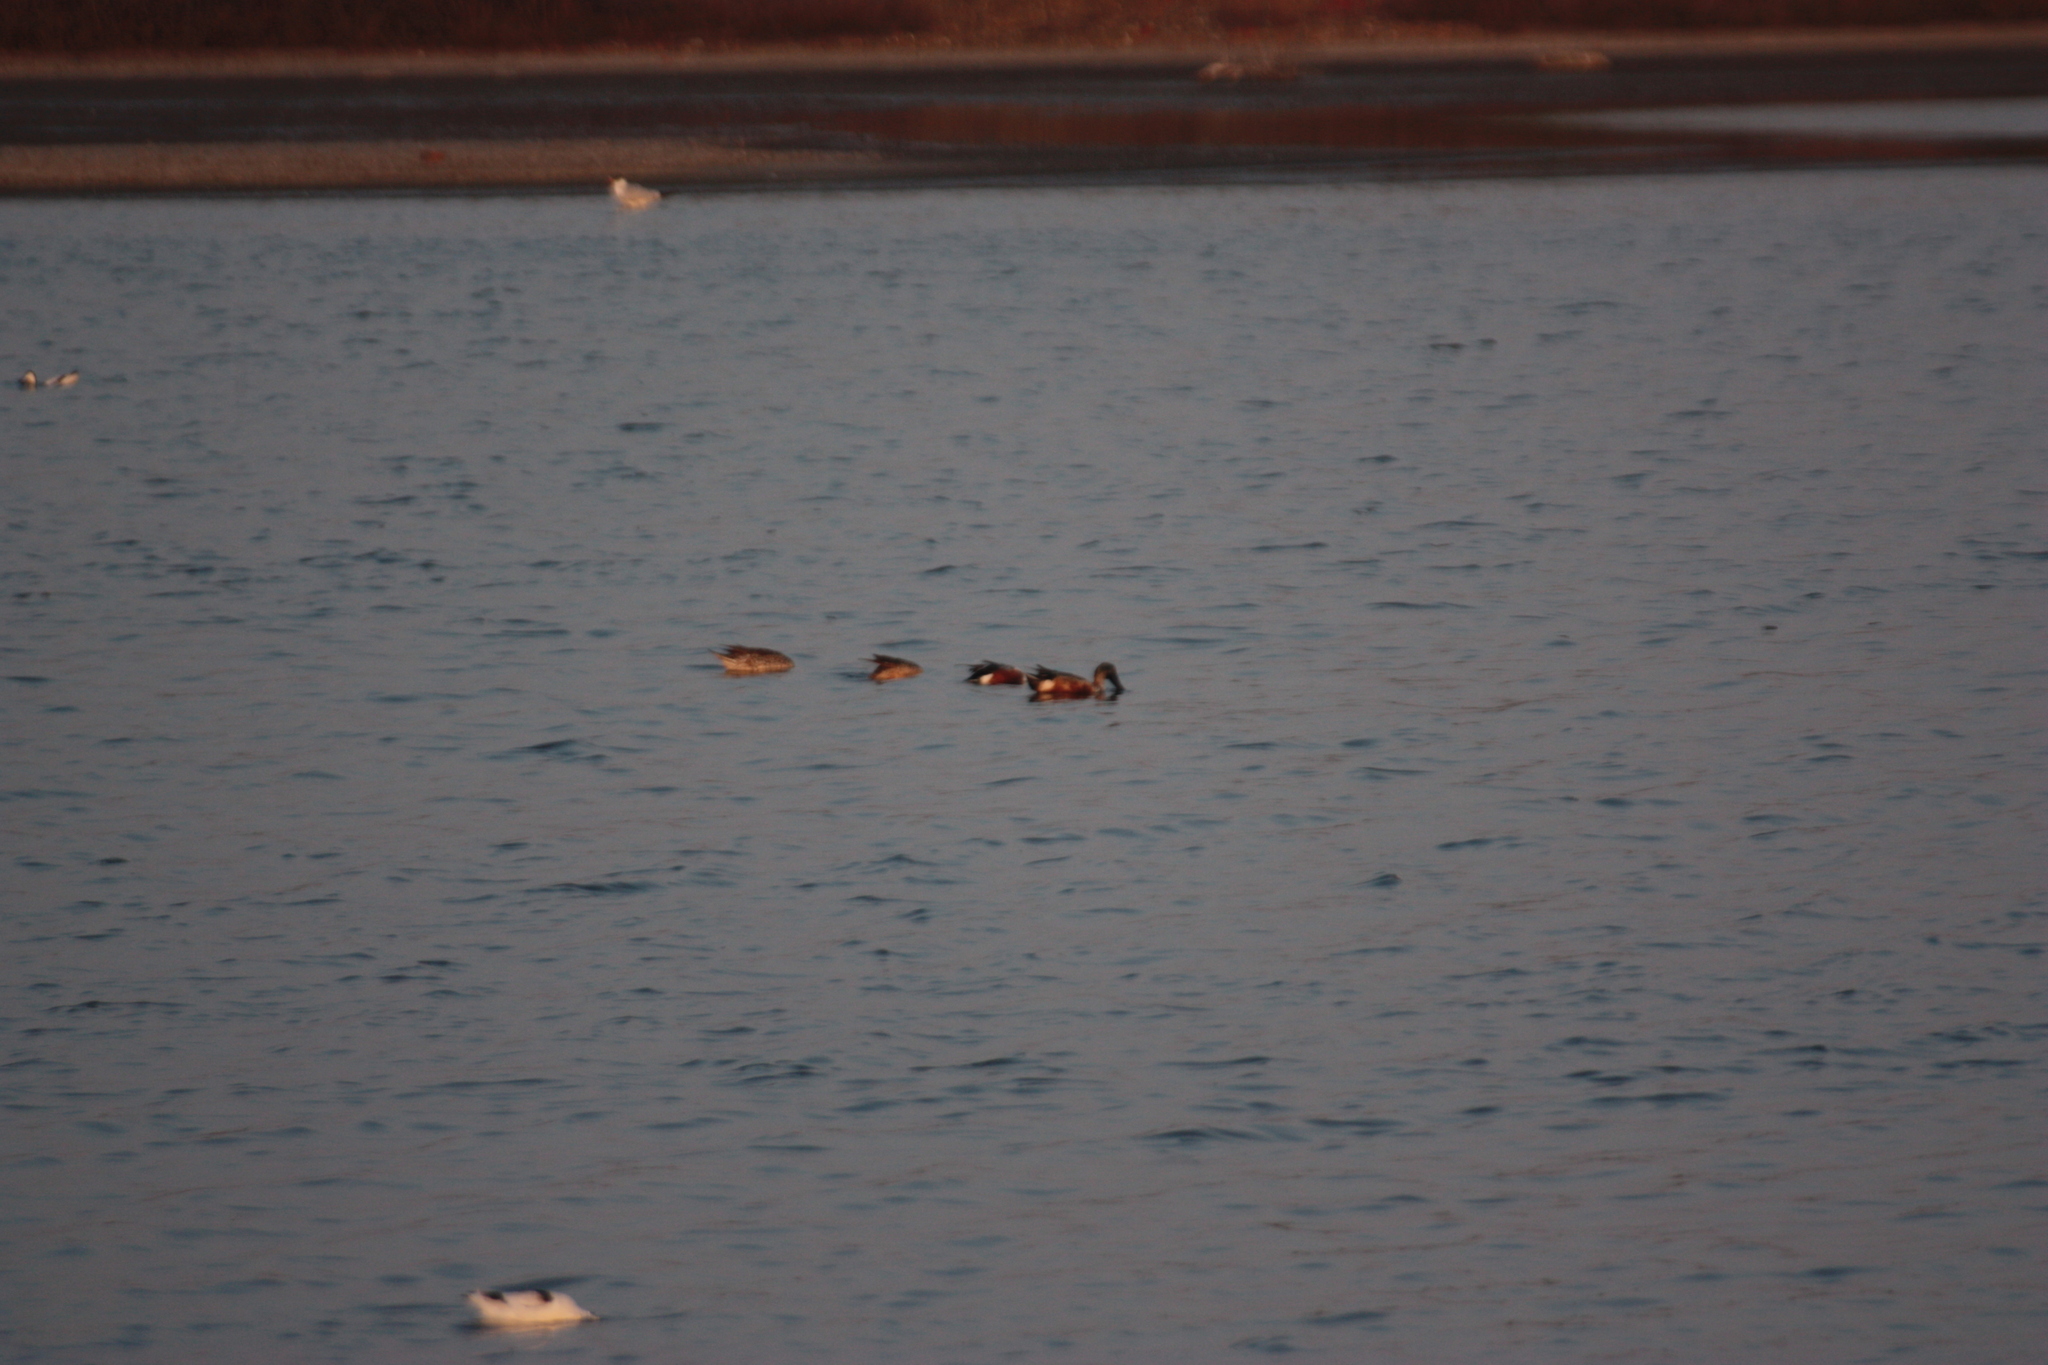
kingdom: Animalia
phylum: Chordata
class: Aves
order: Anseriformes
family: Anatidae
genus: Spatula
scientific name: Spatula clypeata
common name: Northern shoveler
